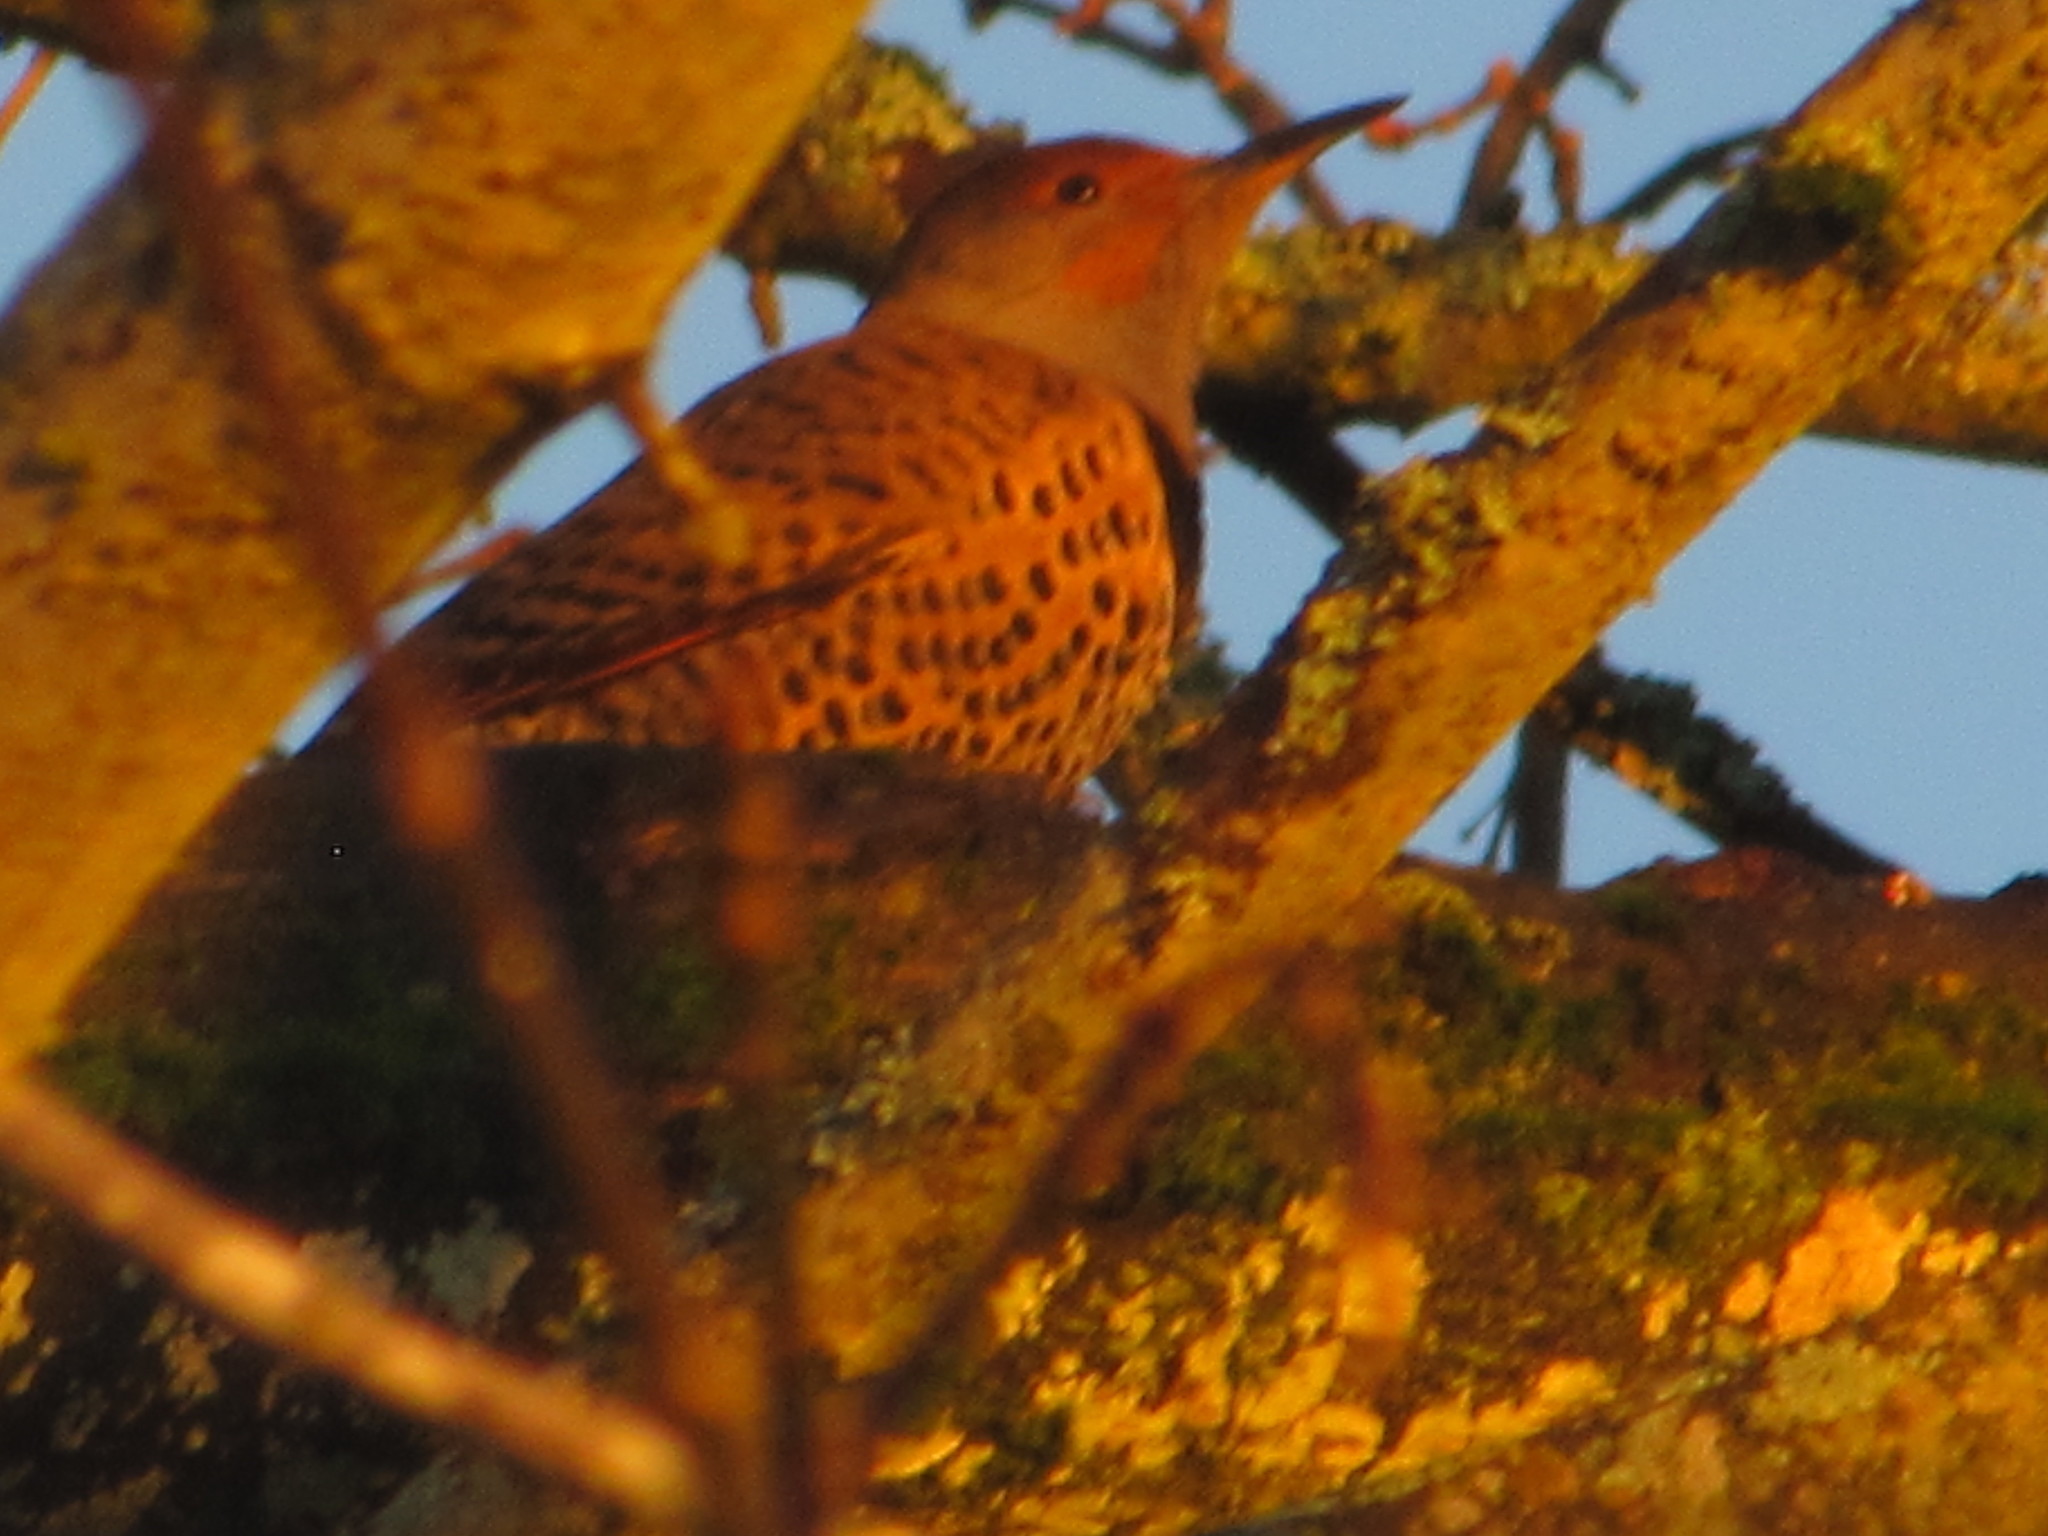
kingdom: Animalia
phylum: Chordata
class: Aves
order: Piciformes
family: Picidae
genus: Colaptes
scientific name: Colaptes auratus
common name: Northern flicker
